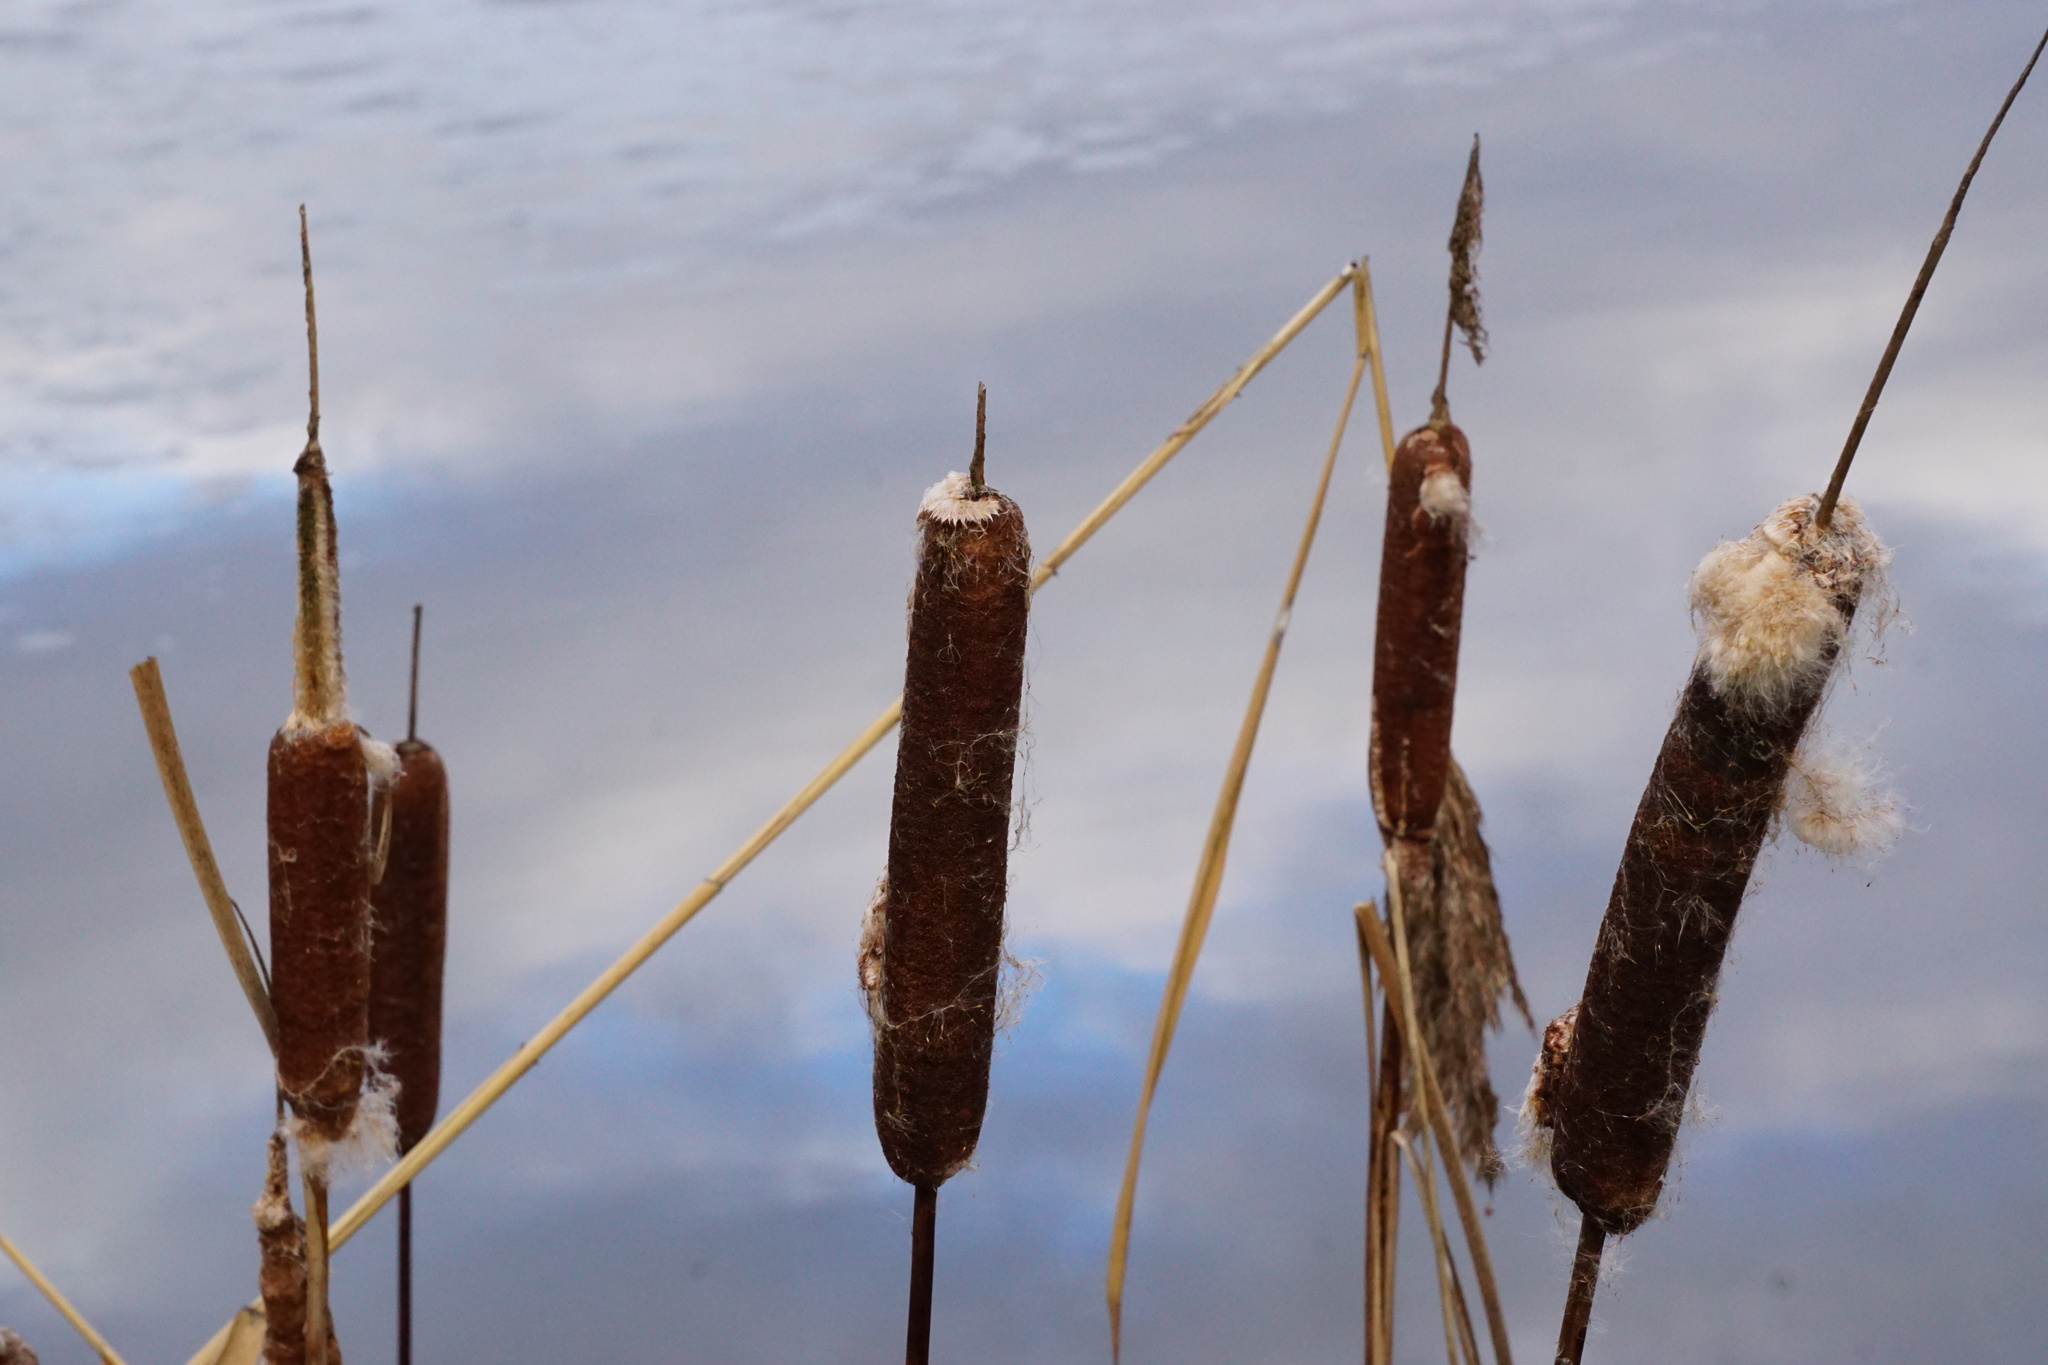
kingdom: Plantae
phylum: Tracheophyta
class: Liliopsida
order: Poales
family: Typhaceae
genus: Typha
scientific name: Typha latifolia
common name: Broadleaf cattail
